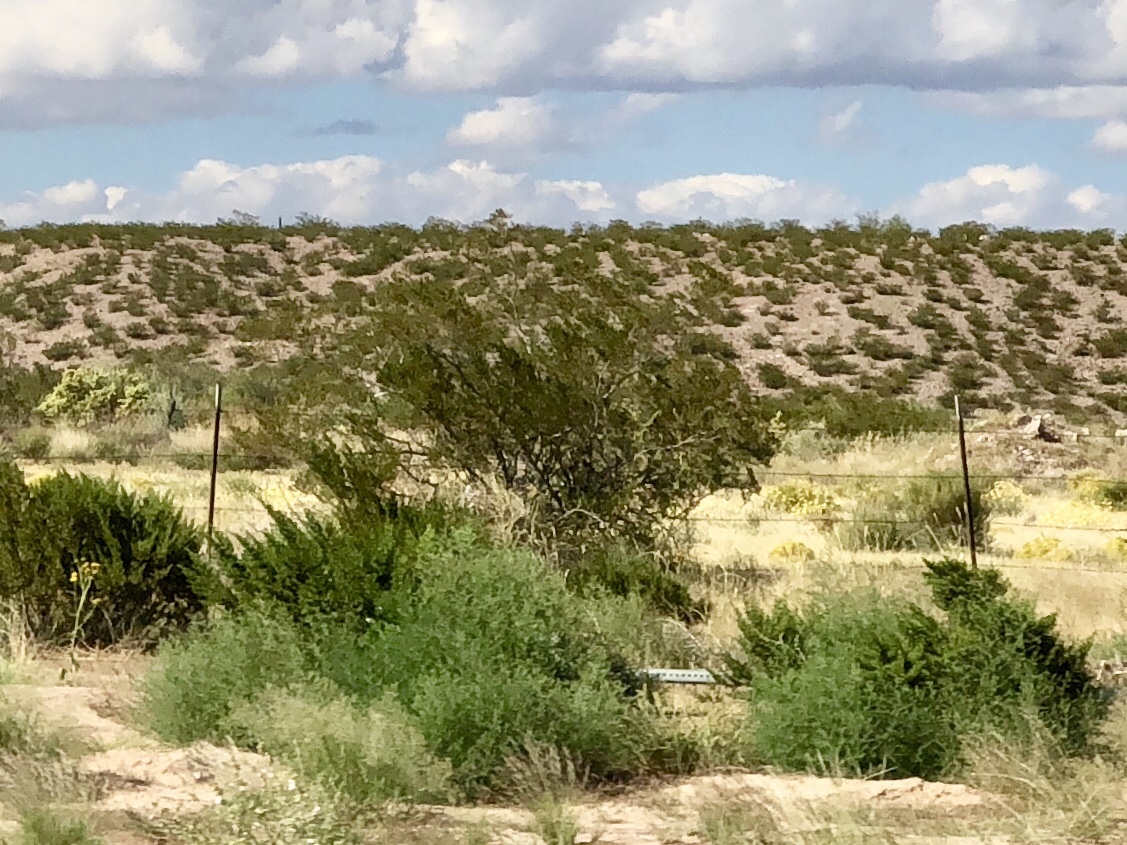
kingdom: Plantae
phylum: Tracheophyta
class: Magnoliopsida
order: Zygophyllales
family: Zygophyllaceae
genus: Larrea
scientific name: Larrea tridentata
